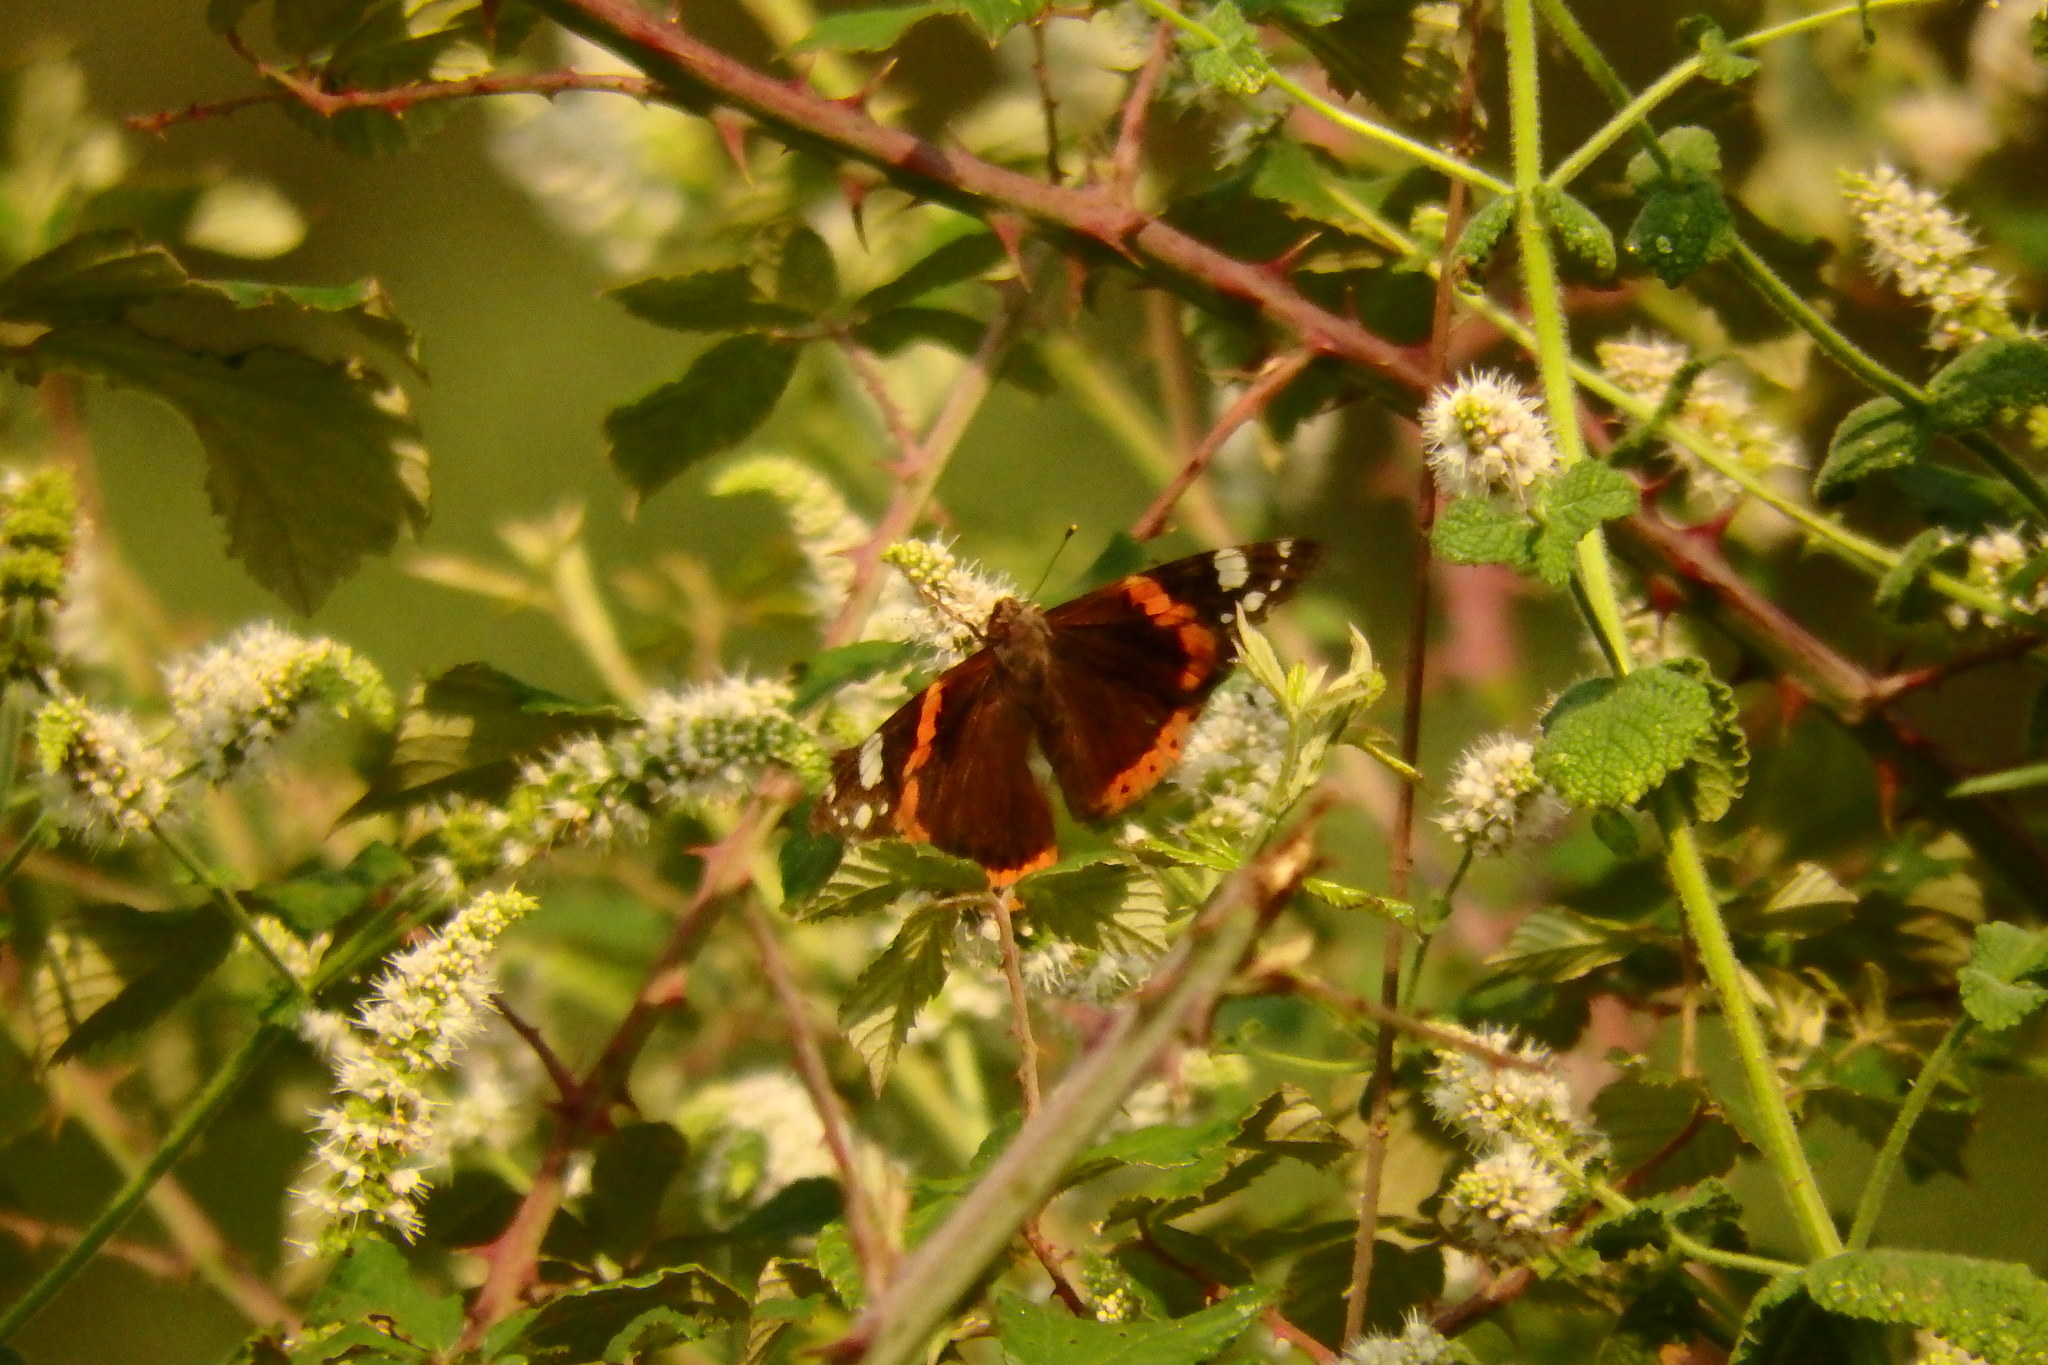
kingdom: Animalia
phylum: Arthropoda
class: Insecta
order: Lepidoptera
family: Nymphalidae
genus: Vanessa
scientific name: Vanessa atalanta
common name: Red admiral
